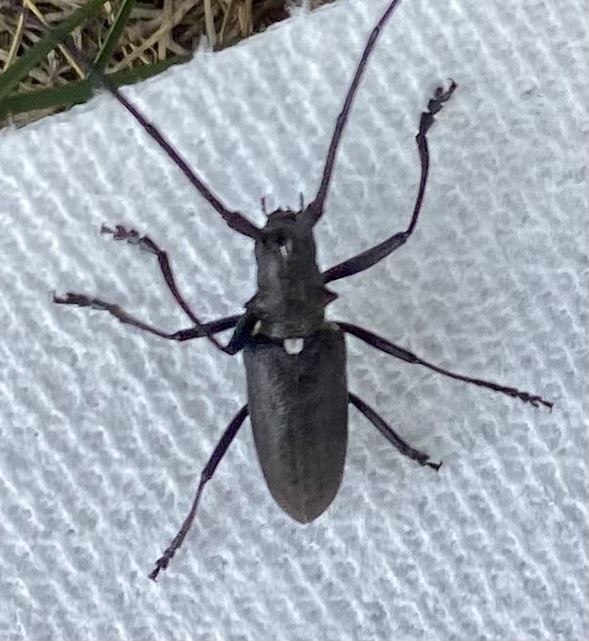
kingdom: Animalia
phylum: Arthropoda
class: Insecta
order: Coleoptera
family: Cerambycidae
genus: Monochamus
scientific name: Monochamus scutellatus
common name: White-spotted sawyer beetle
